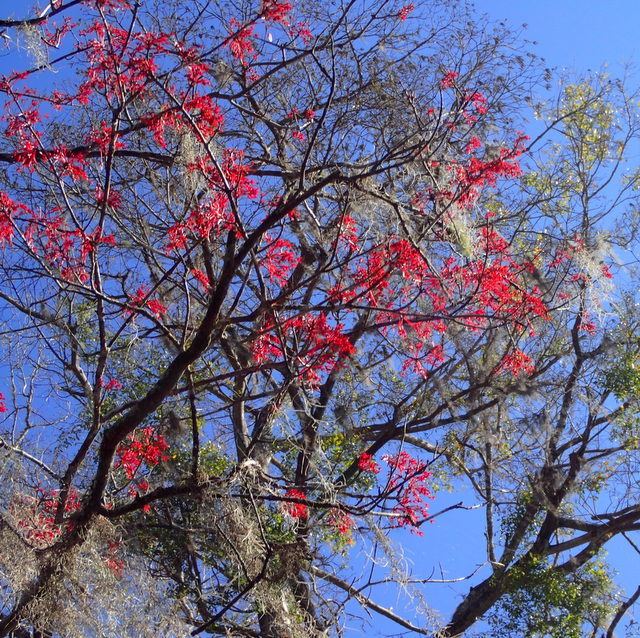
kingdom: Plantae
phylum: Tracheophyta
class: Magnoliopsida
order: Sapindales
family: Sapindaceae
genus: Acer
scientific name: Acer rubrum
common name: Red maple
